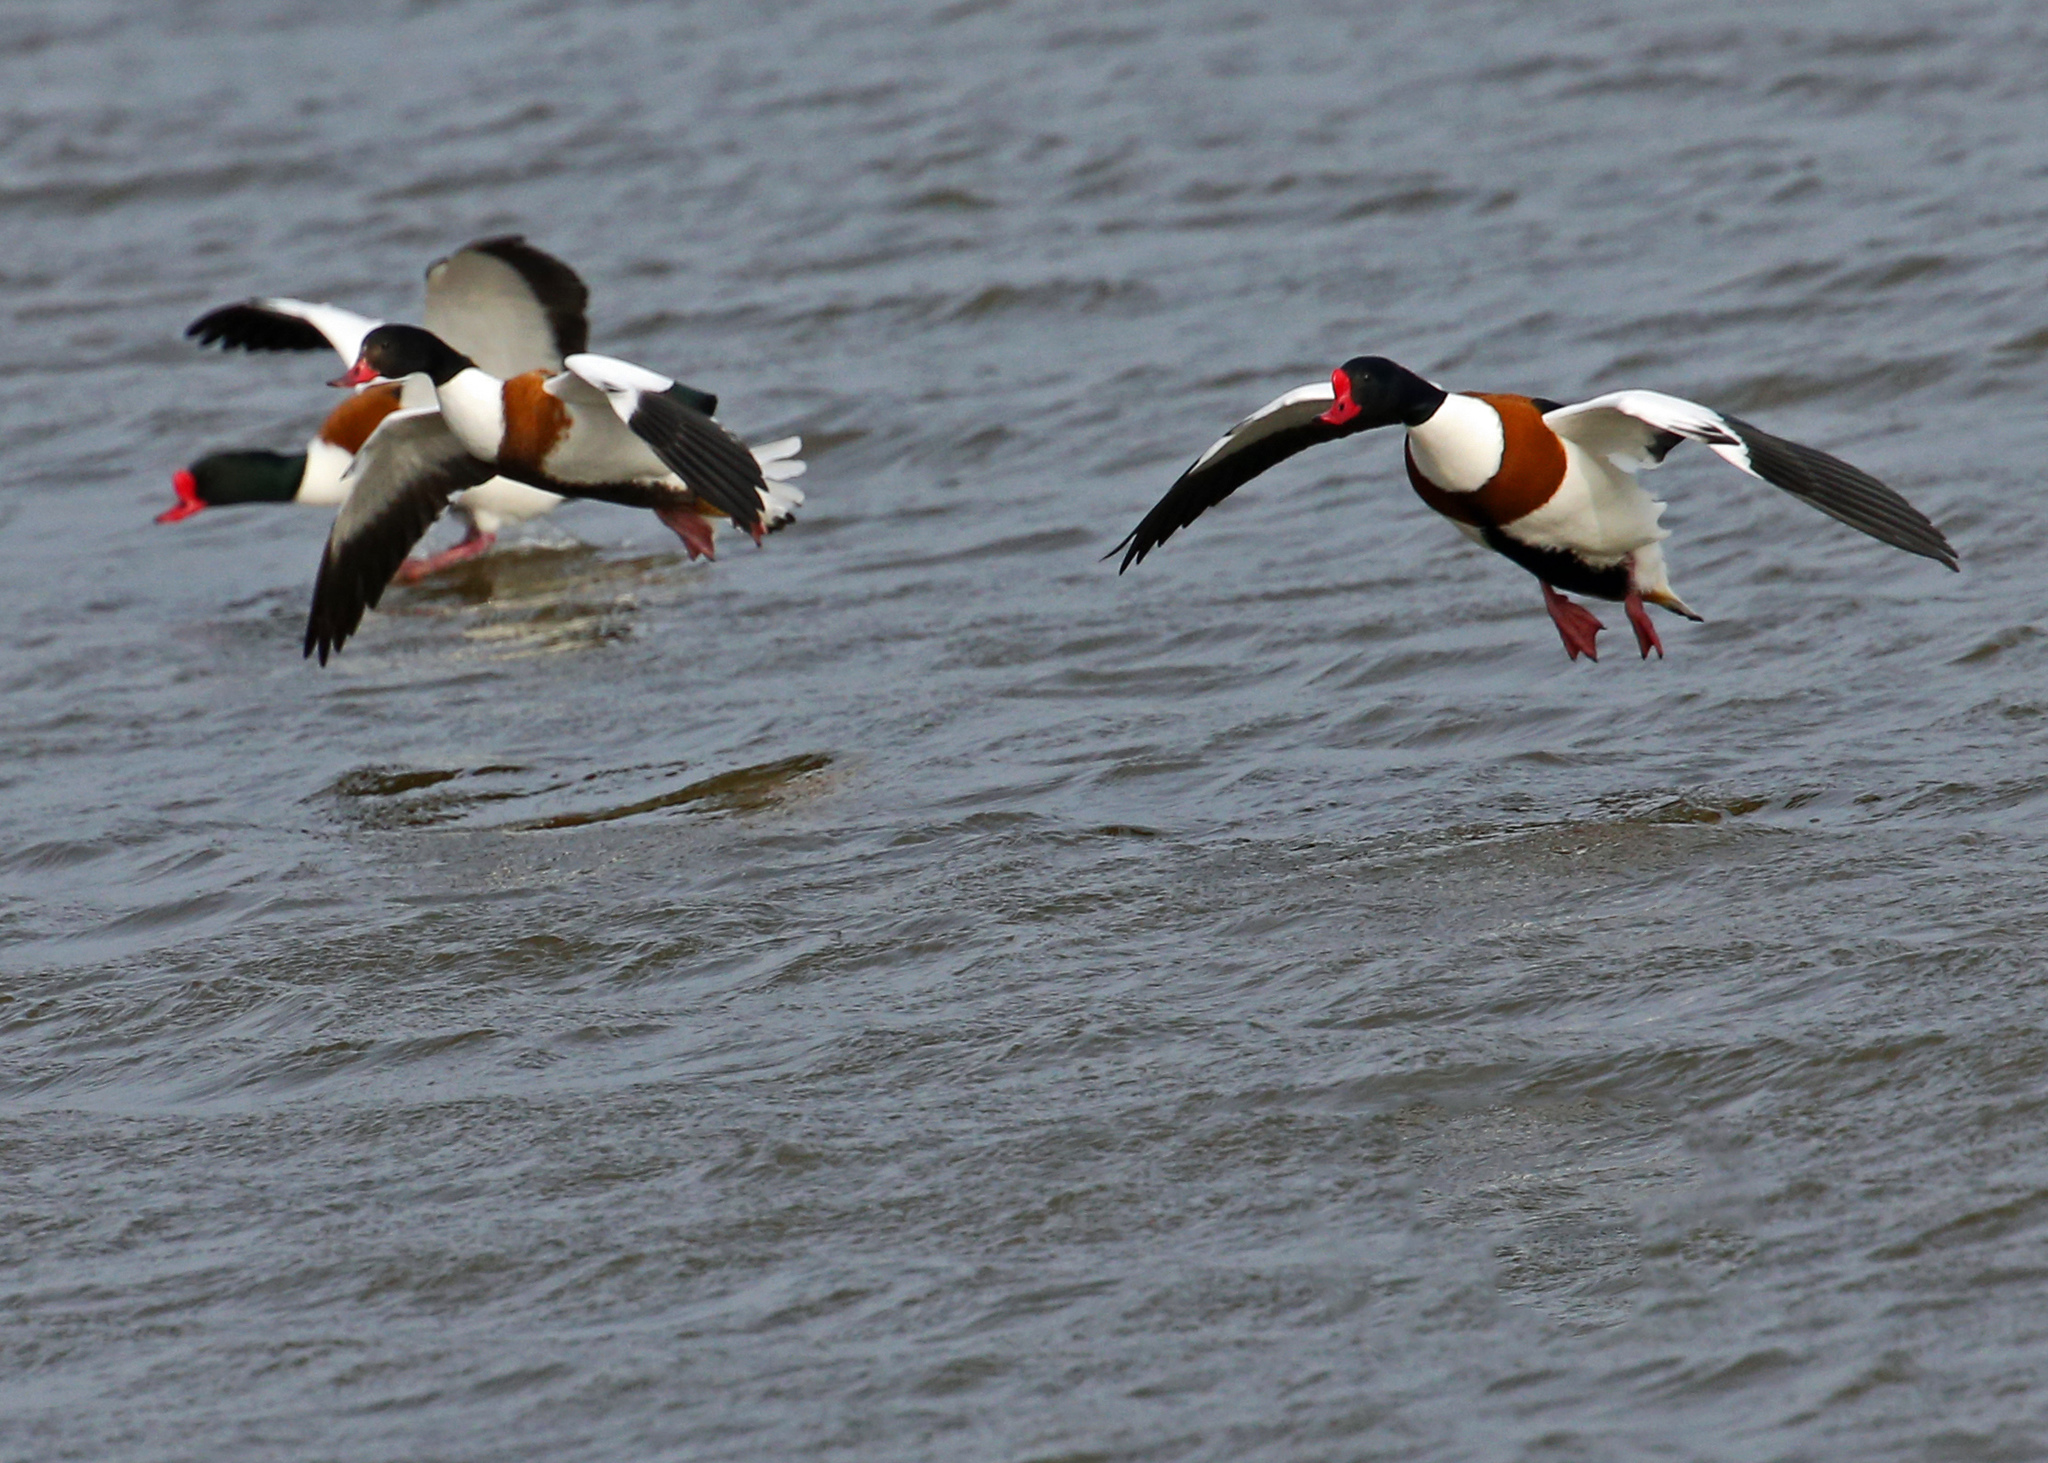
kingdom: Animalia
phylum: Chordata
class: Aves
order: Anseriformes
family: Anatidae
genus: Tadorna
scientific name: Tadorna tadorna
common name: Common shelduck
